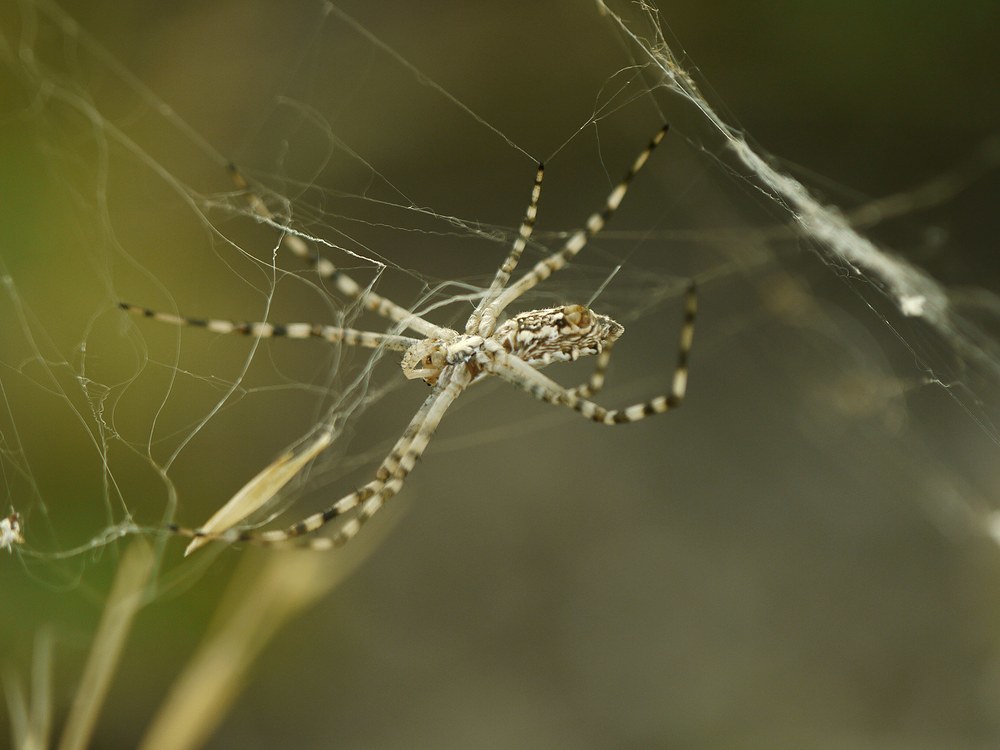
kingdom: Animalia
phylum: Arthropoda
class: Arachnida
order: Araneae
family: Araneidae
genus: Argiope
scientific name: Argiope lobata
